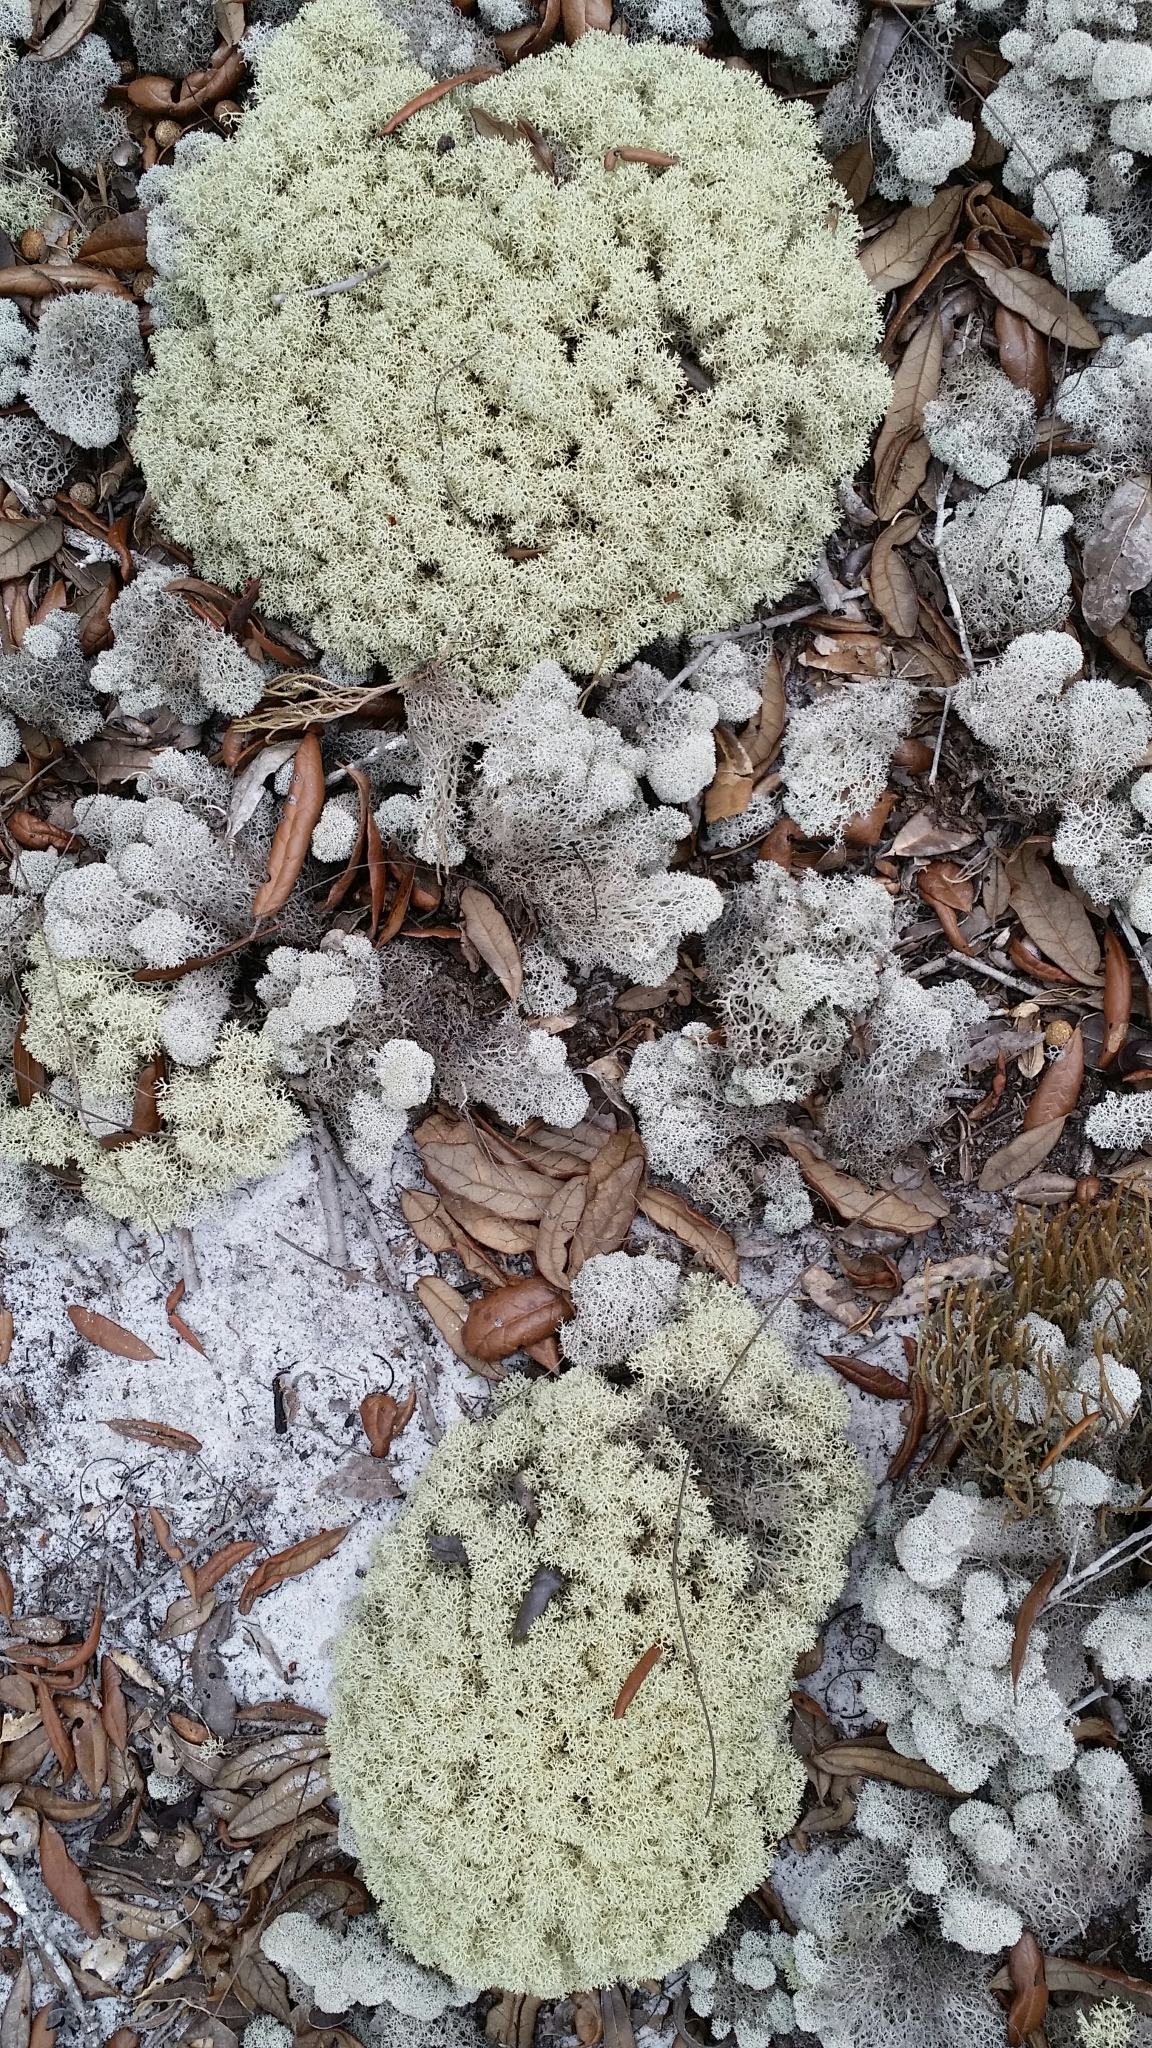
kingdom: Fungi
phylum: Ascomycota
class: Lecanoromycetes
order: Lecanorales
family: Cladoniaceae
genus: Cladonia
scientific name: Cladonia subtenuis
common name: Dixie reindeer lichen
